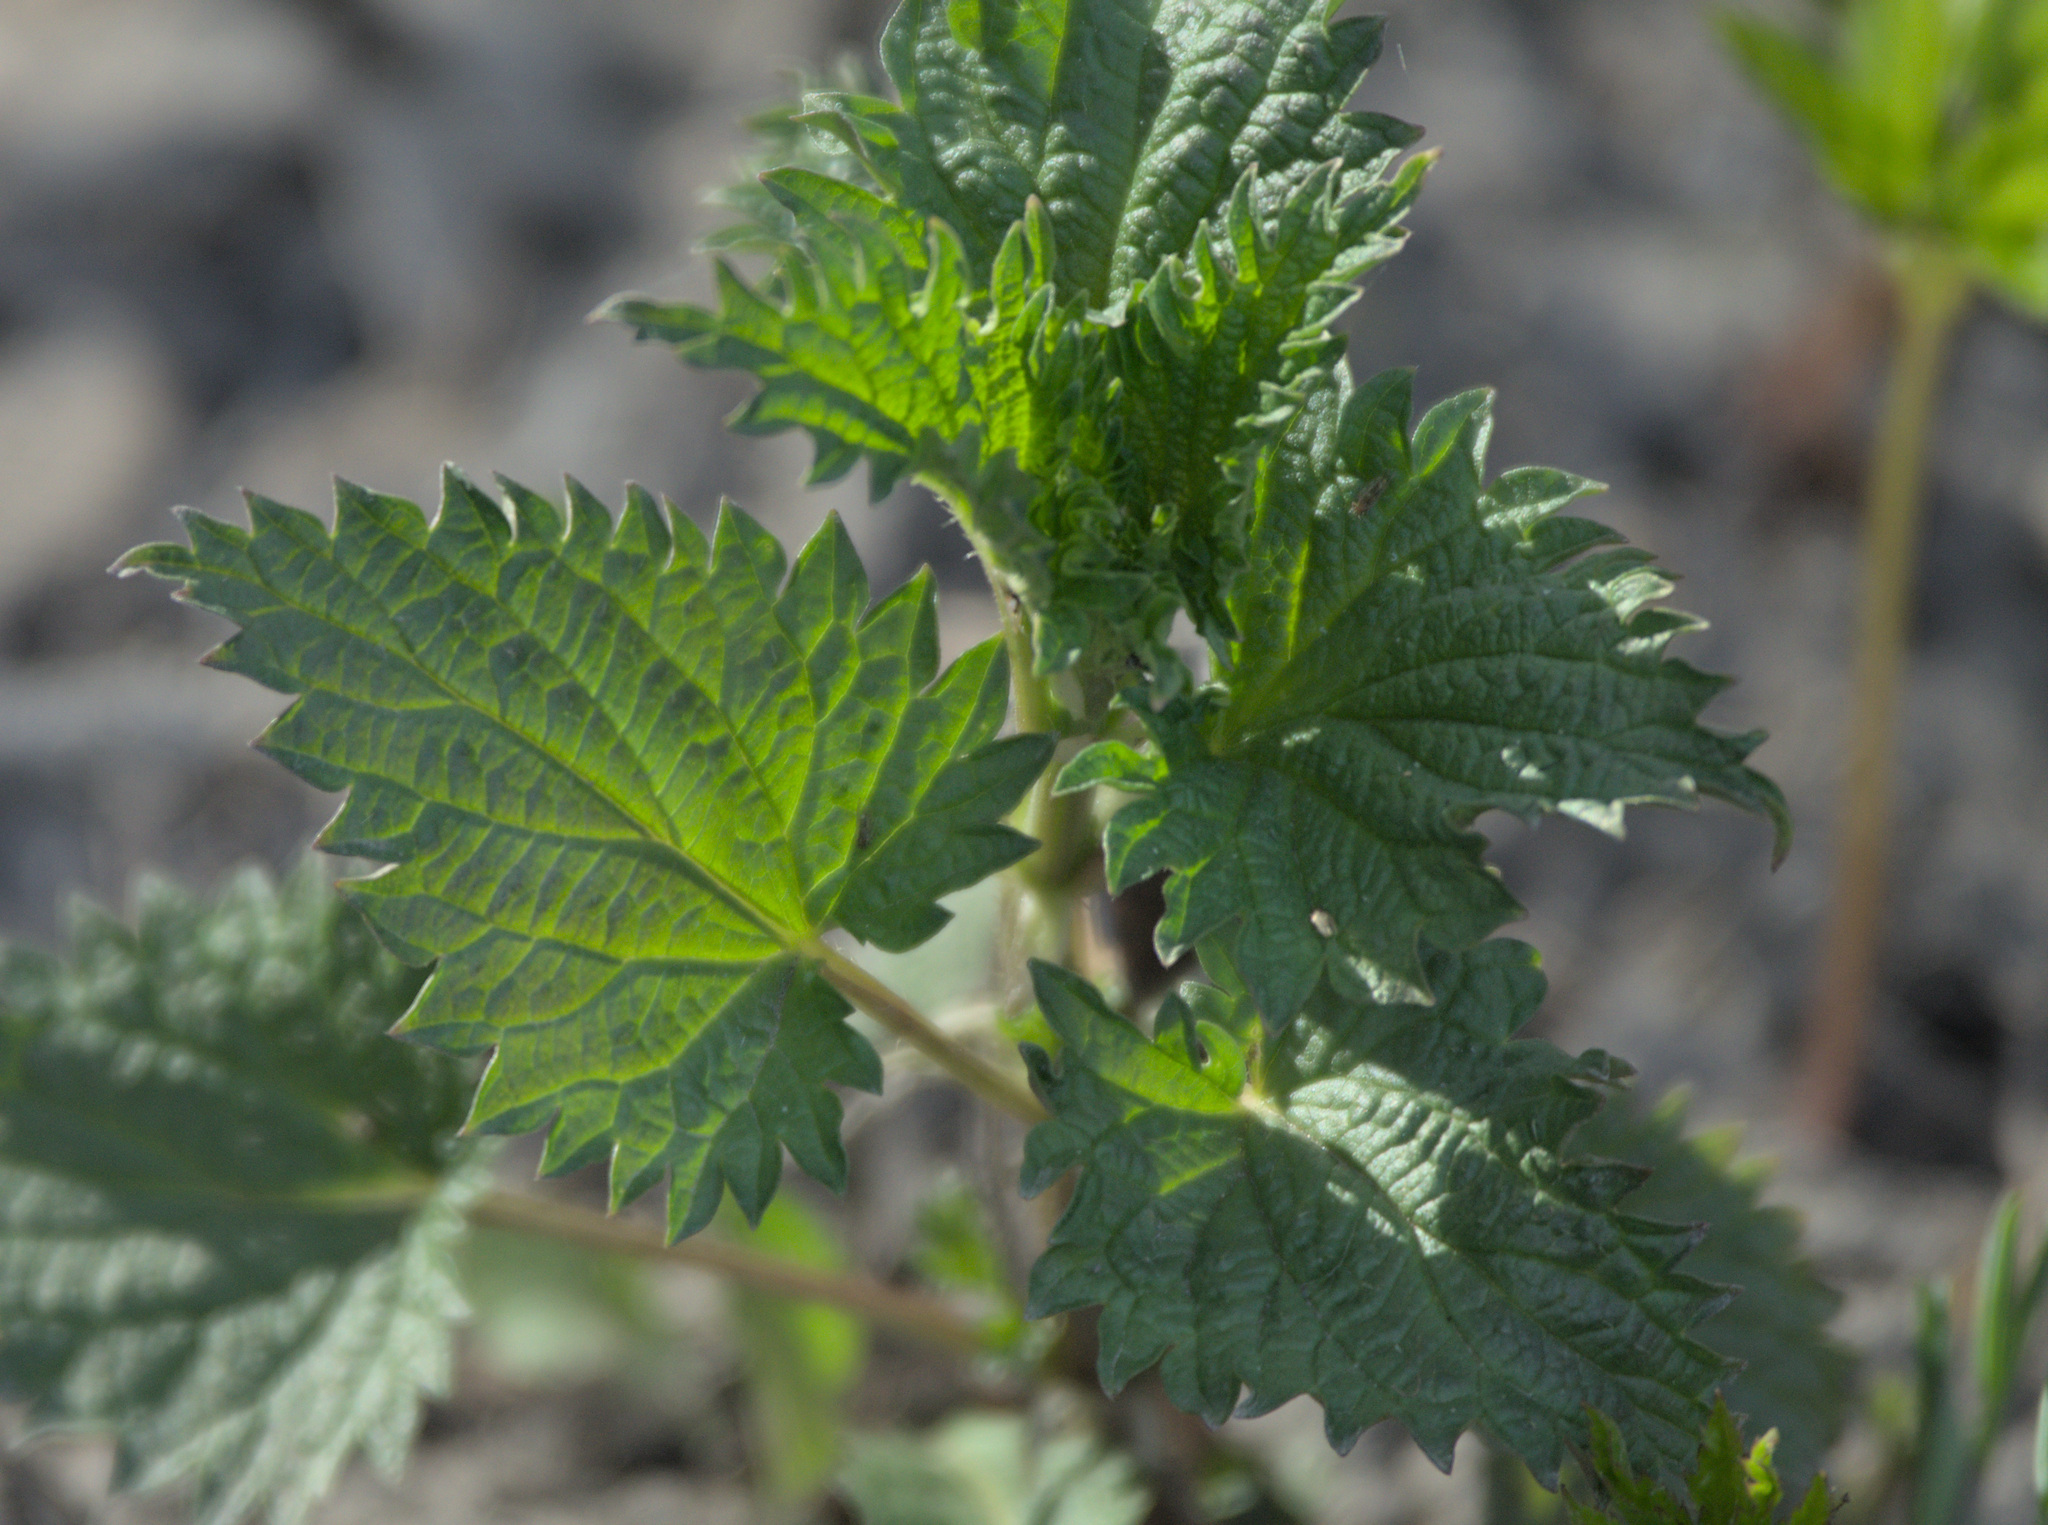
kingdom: Plantae
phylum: Tracheophyta
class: Magnoliopsida
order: Rosales
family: Urticaceae
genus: Urtica
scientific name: Urtica dioica
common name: Common nettle
